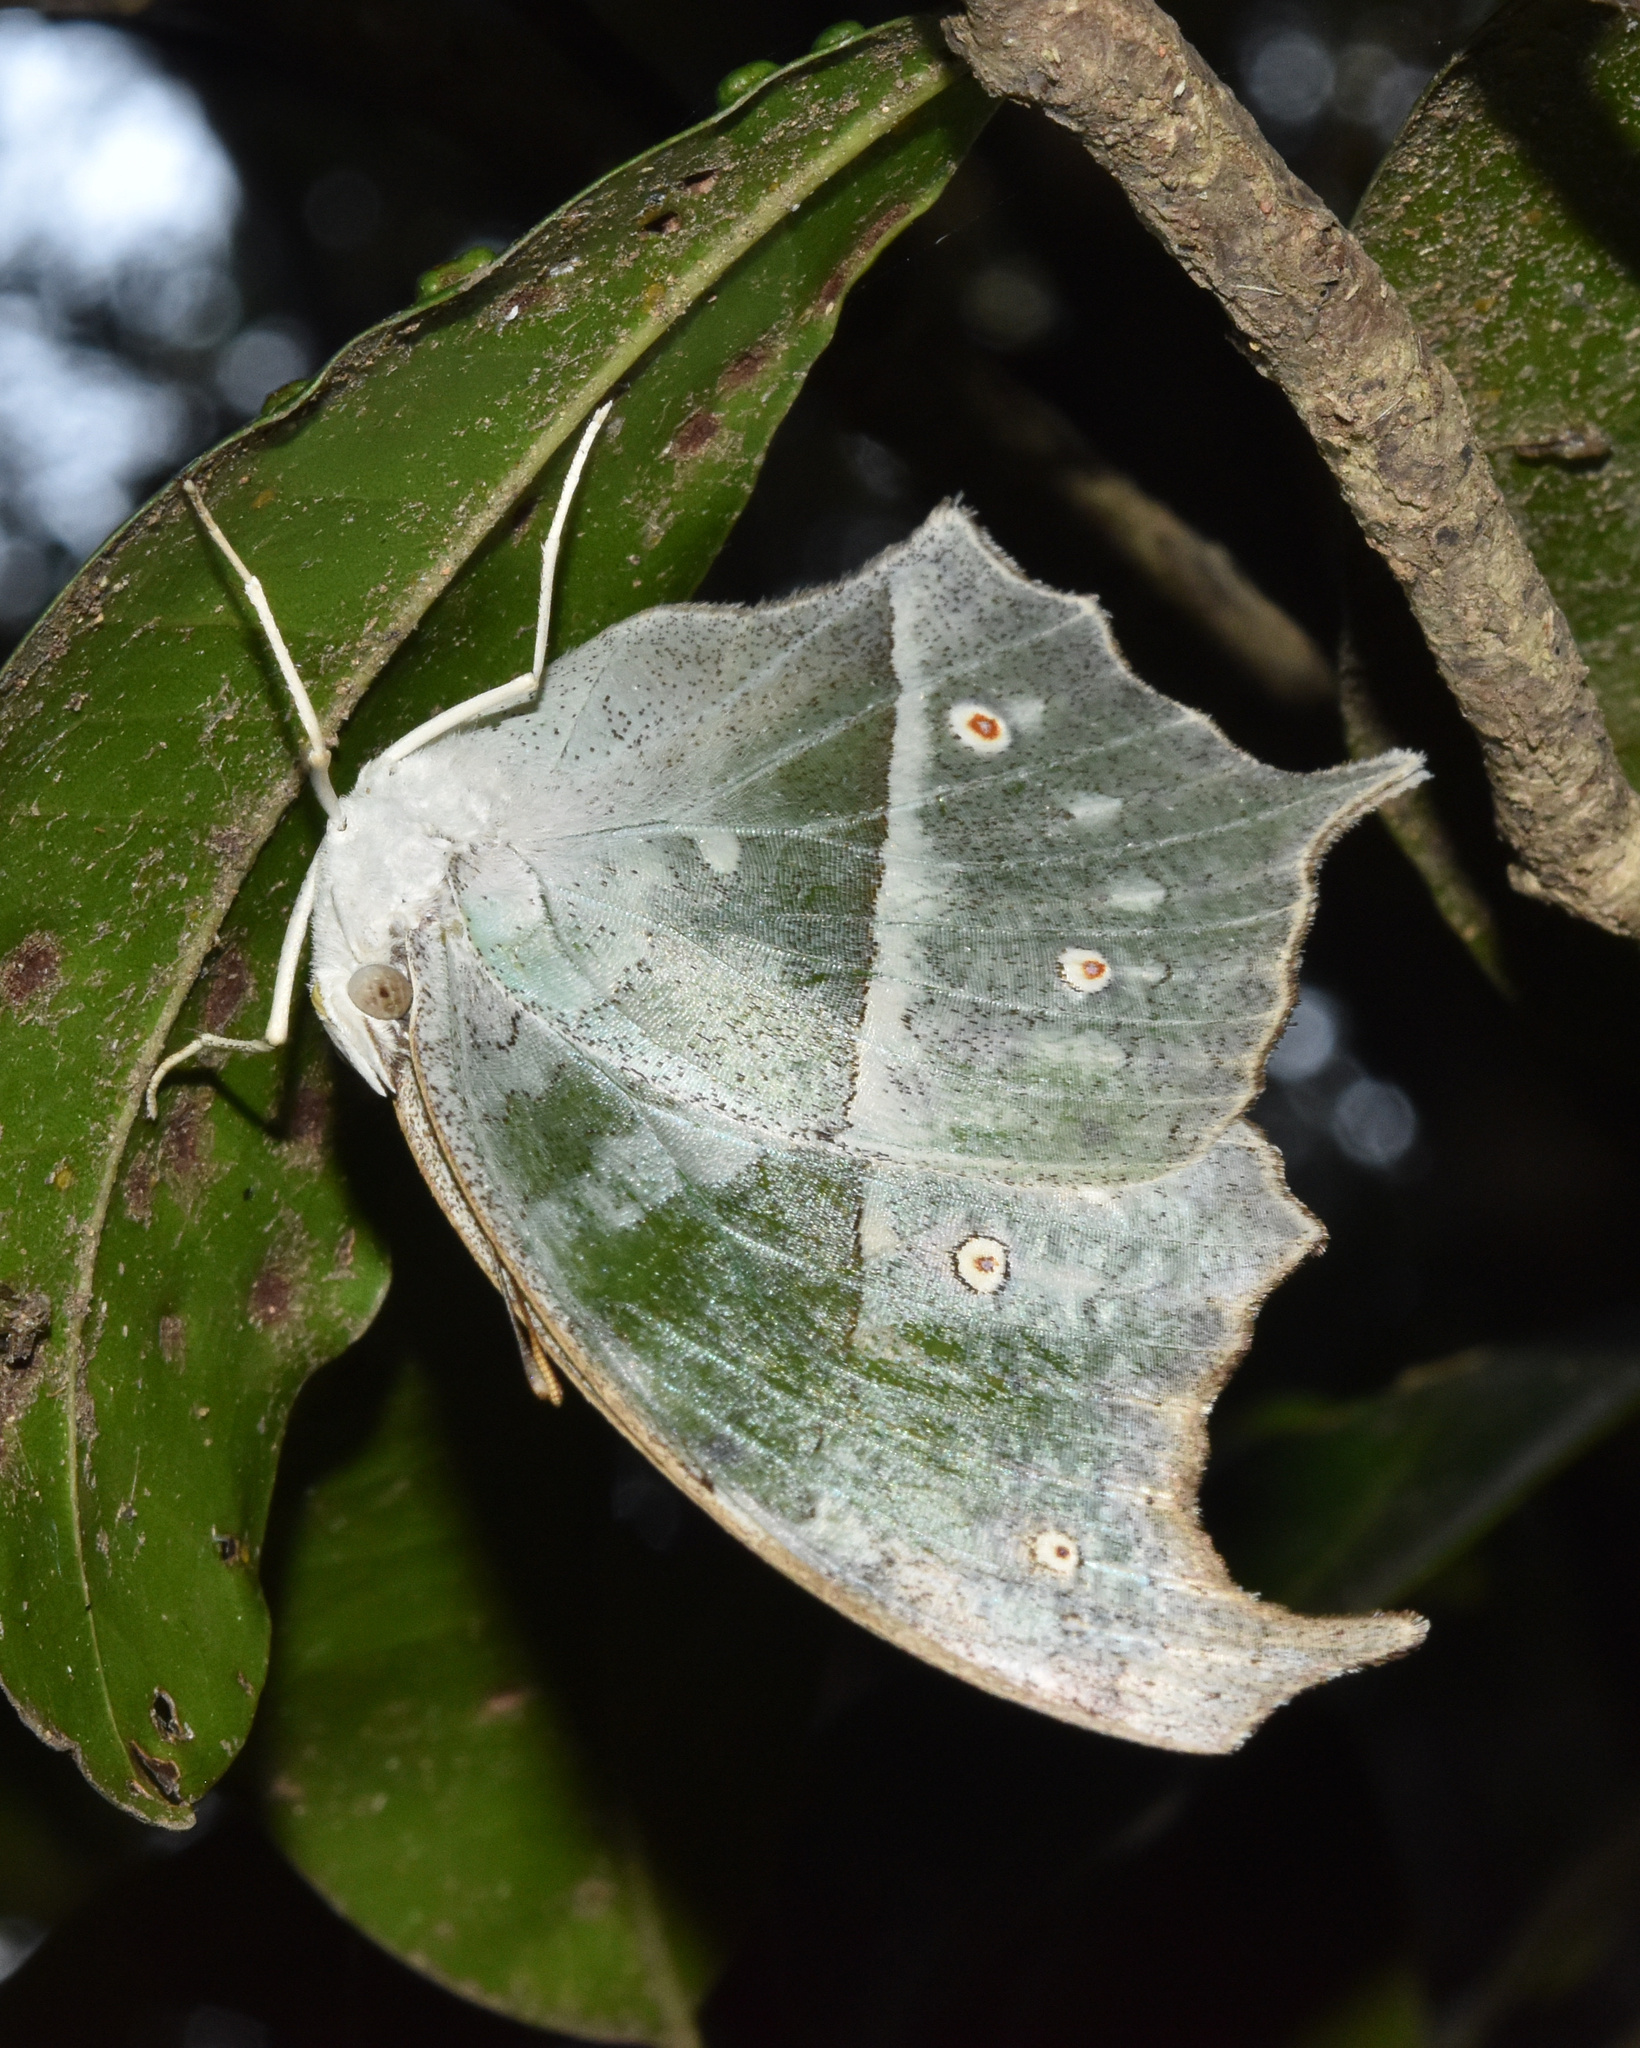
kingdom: Animalia
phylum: Arthropoda
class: Insecta
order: Lepidoptera
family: Nymphalidae
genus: Salamis
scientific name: Salamis Protogoniomorpha parhassus
